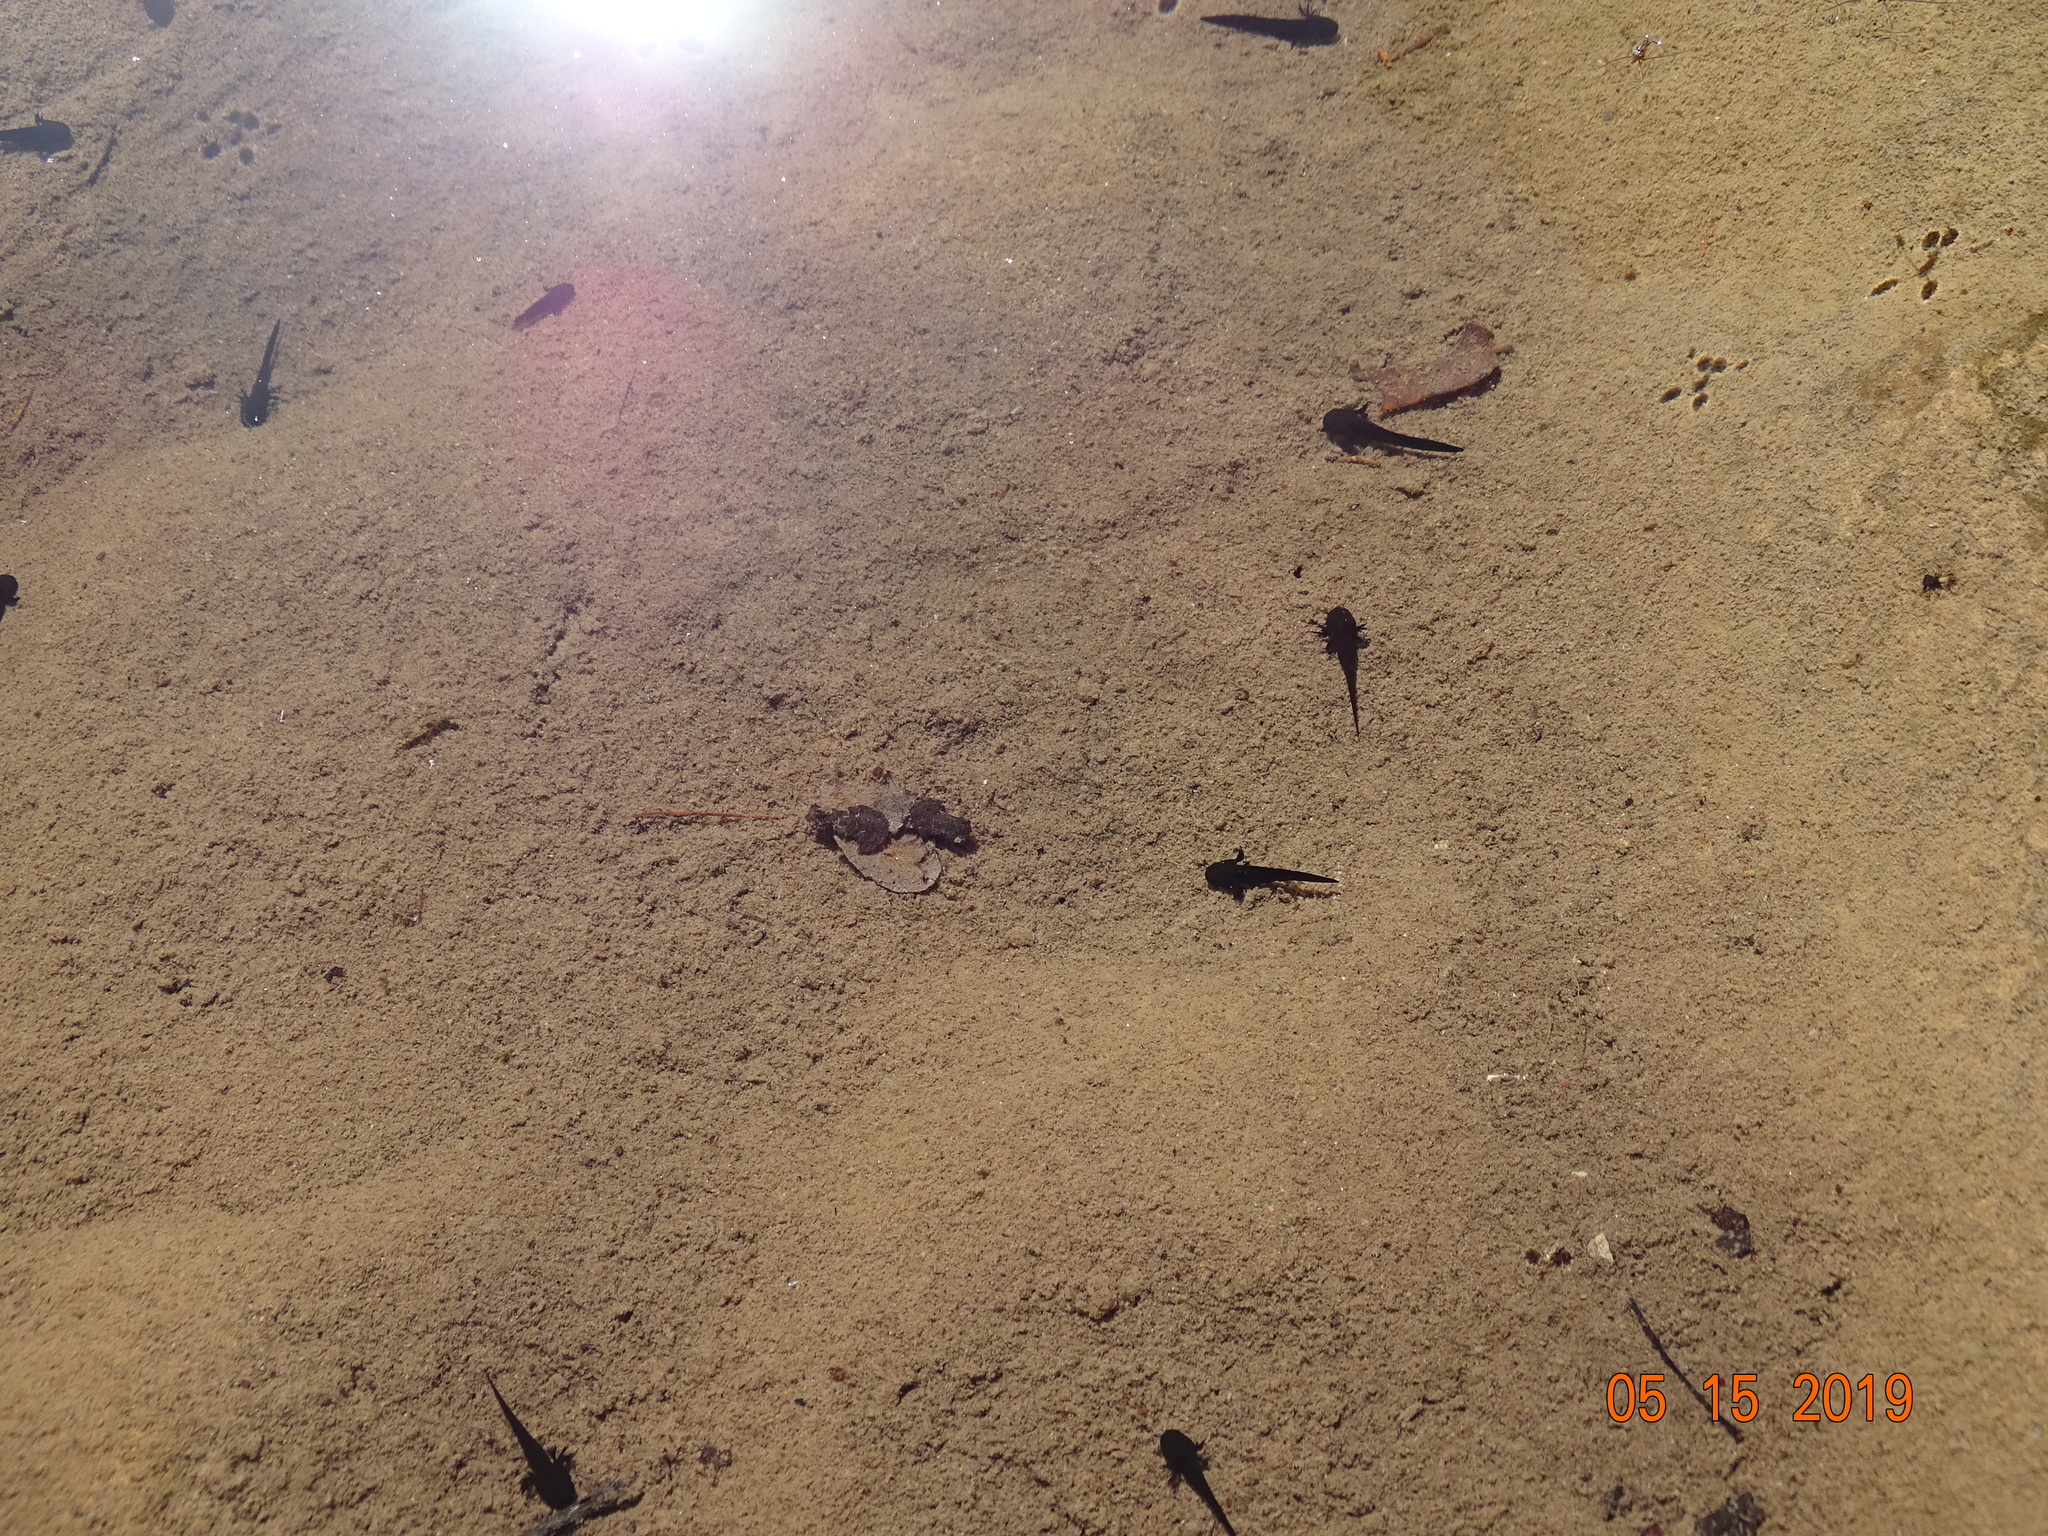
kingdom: Animalia
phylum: Chordata
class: Amphibia
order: Caudata
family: Ambystomatidae
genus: Ambystoma
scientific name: Ambystoma rosaceum
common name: Tarahumara salamander
